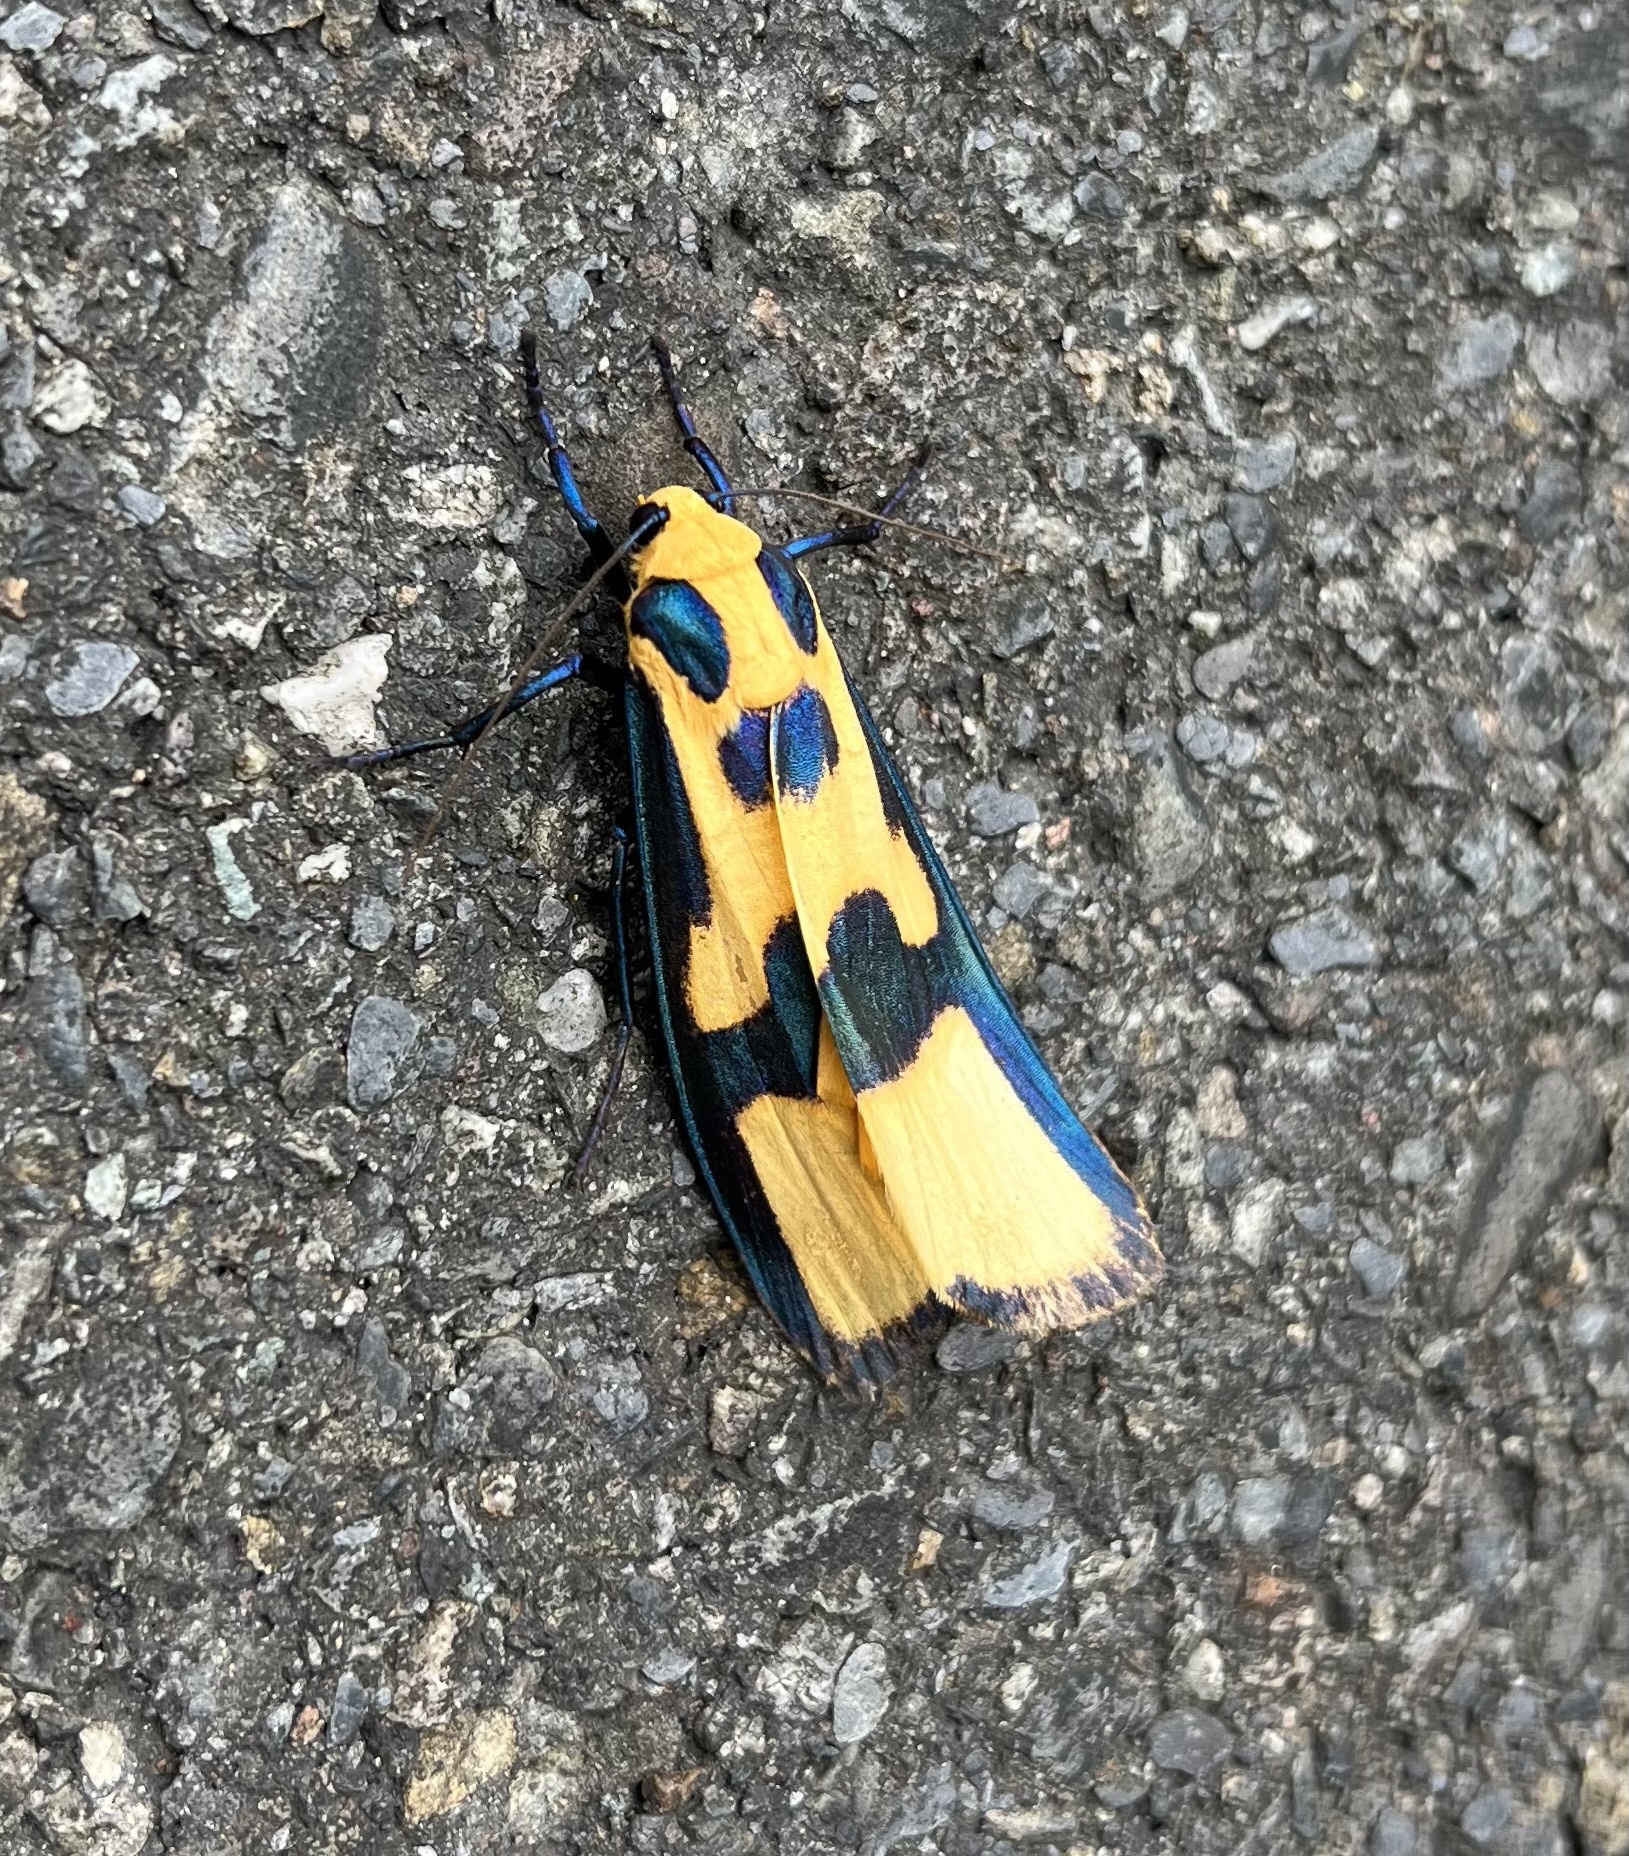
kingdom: Animalia
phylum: Arthropoda
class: Insecta
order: Lepidoptera
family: Erebidae
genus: Chrysaeglia
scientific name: Chrysaeglia magnifica
